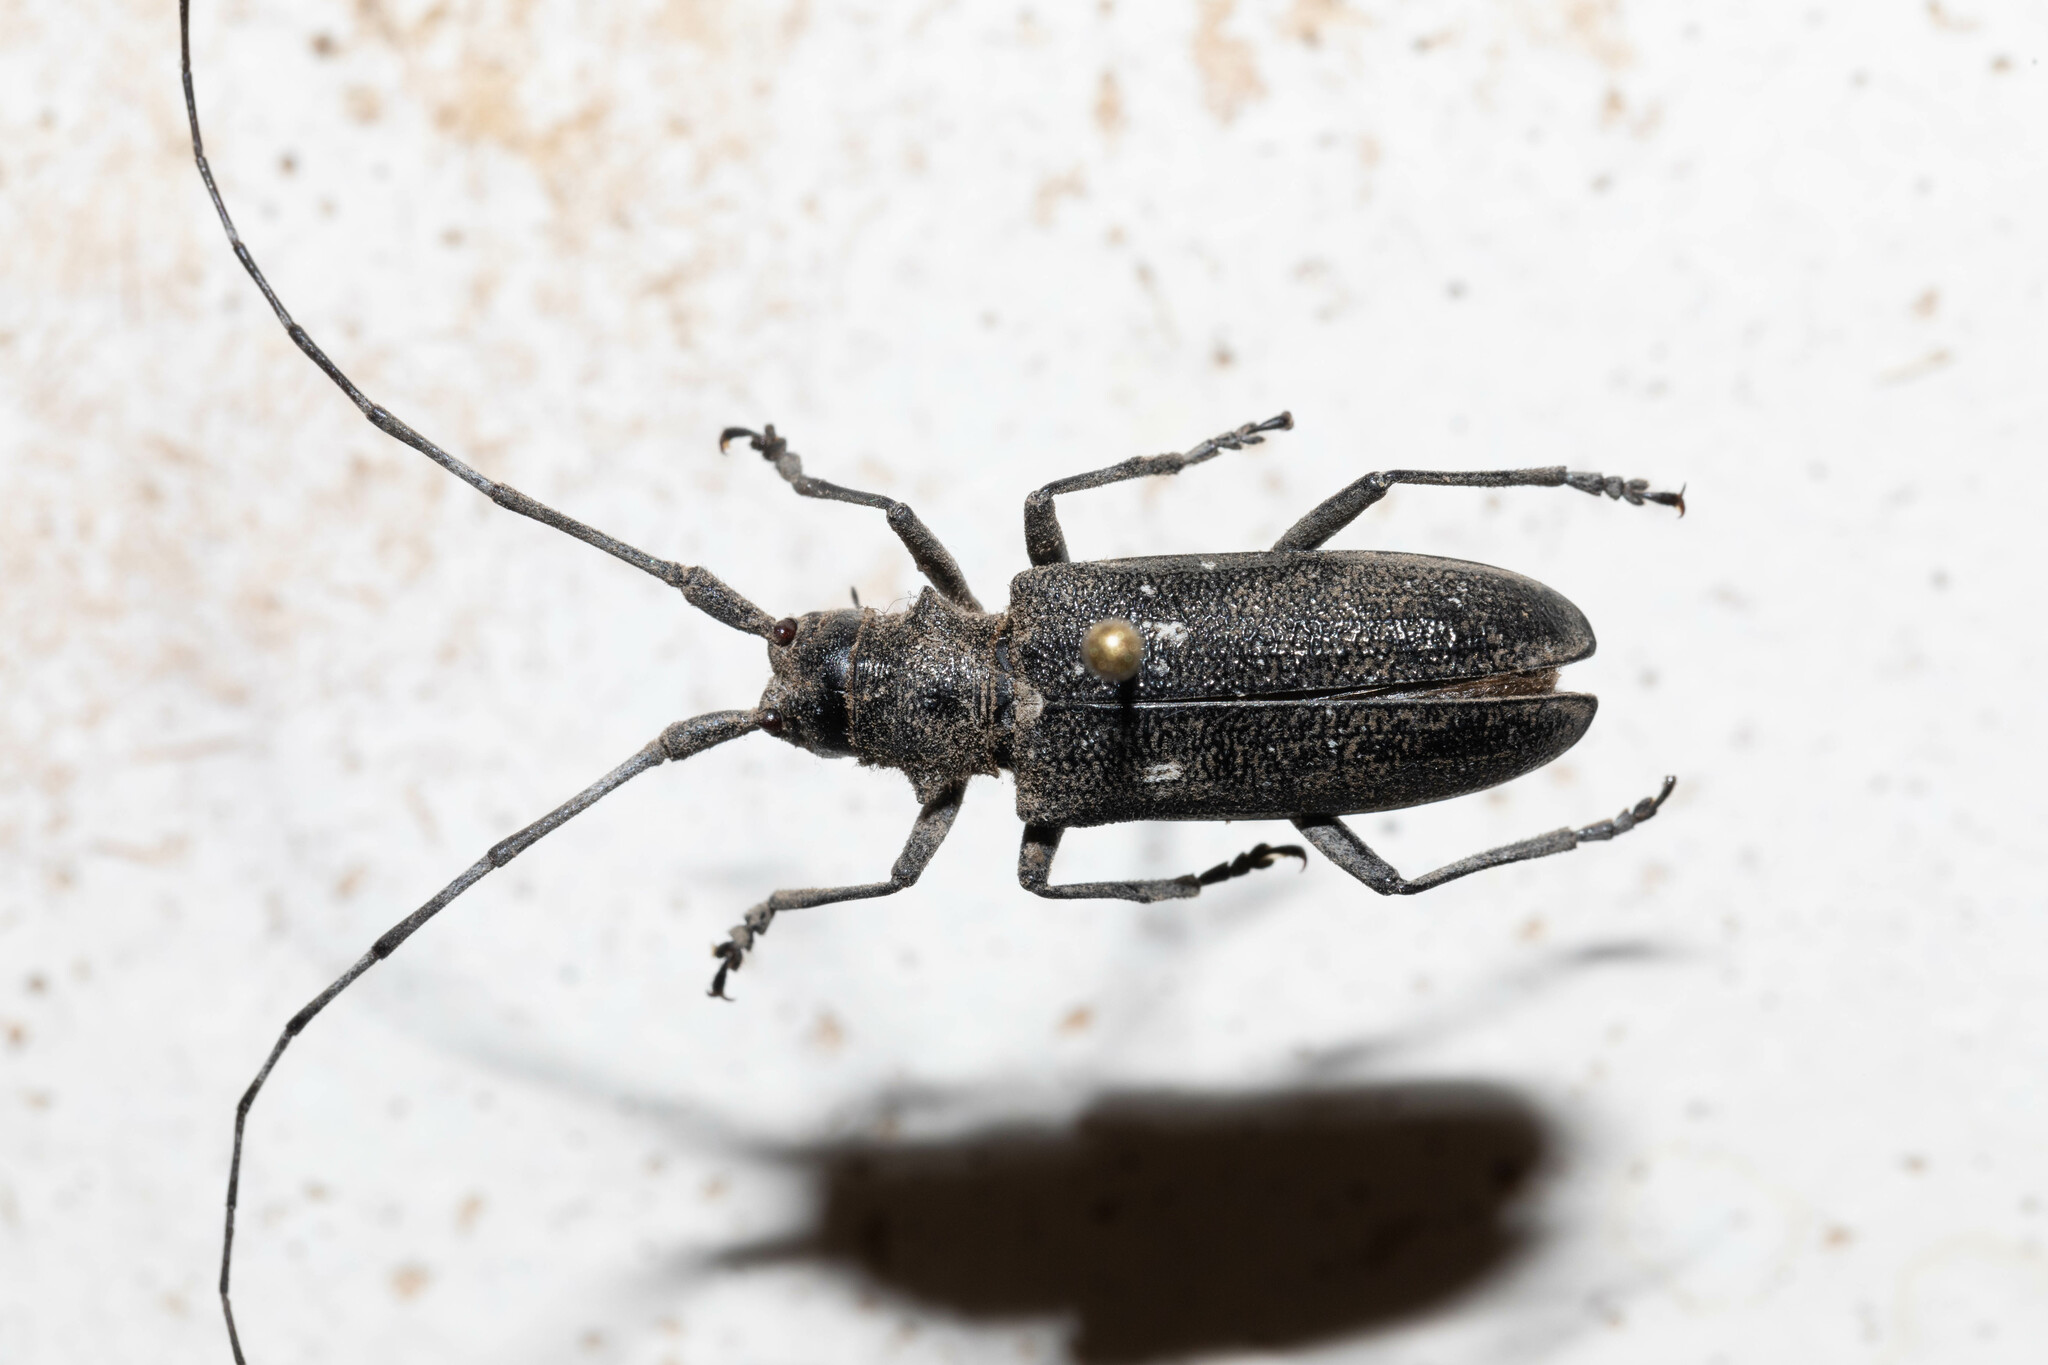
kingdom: Animalia
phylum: Arthropoda
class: Insecta
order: Coleoptera
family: Cerambycidae
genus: Monochamus
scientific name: Monochamus scutellatus
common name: White-spotted sawyer beetle
